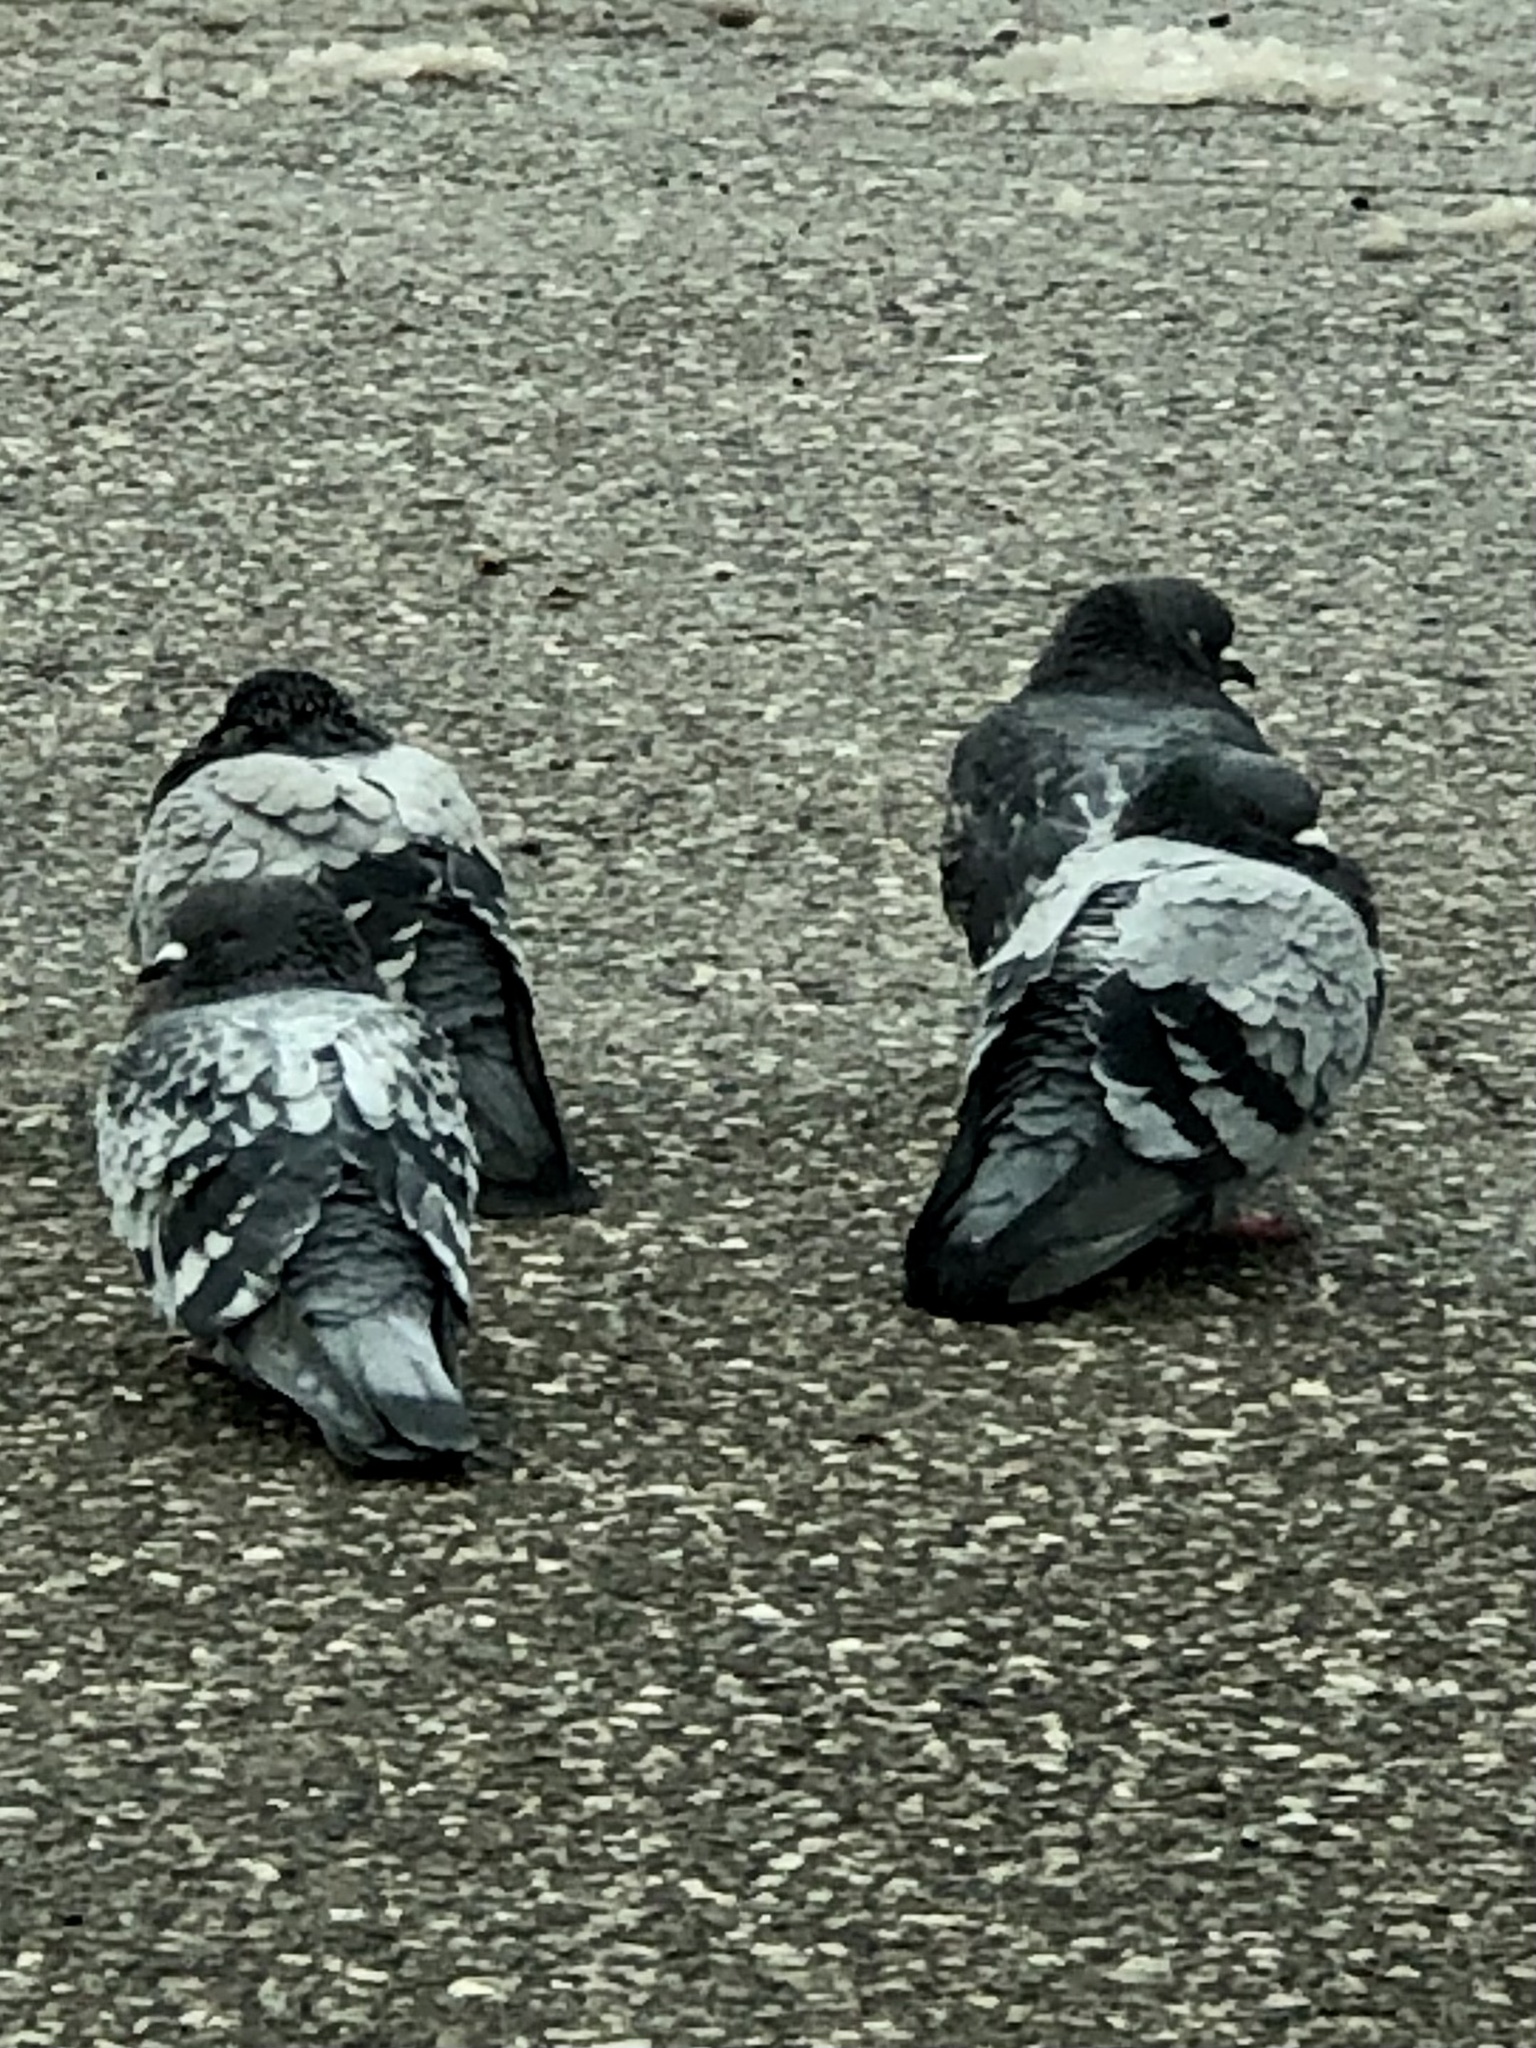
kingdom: Animalia
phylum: Chordata
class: Aves
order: Columbiformes
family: Columbidae
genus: Columba
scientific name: Columba livia
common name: Rock pigeon
